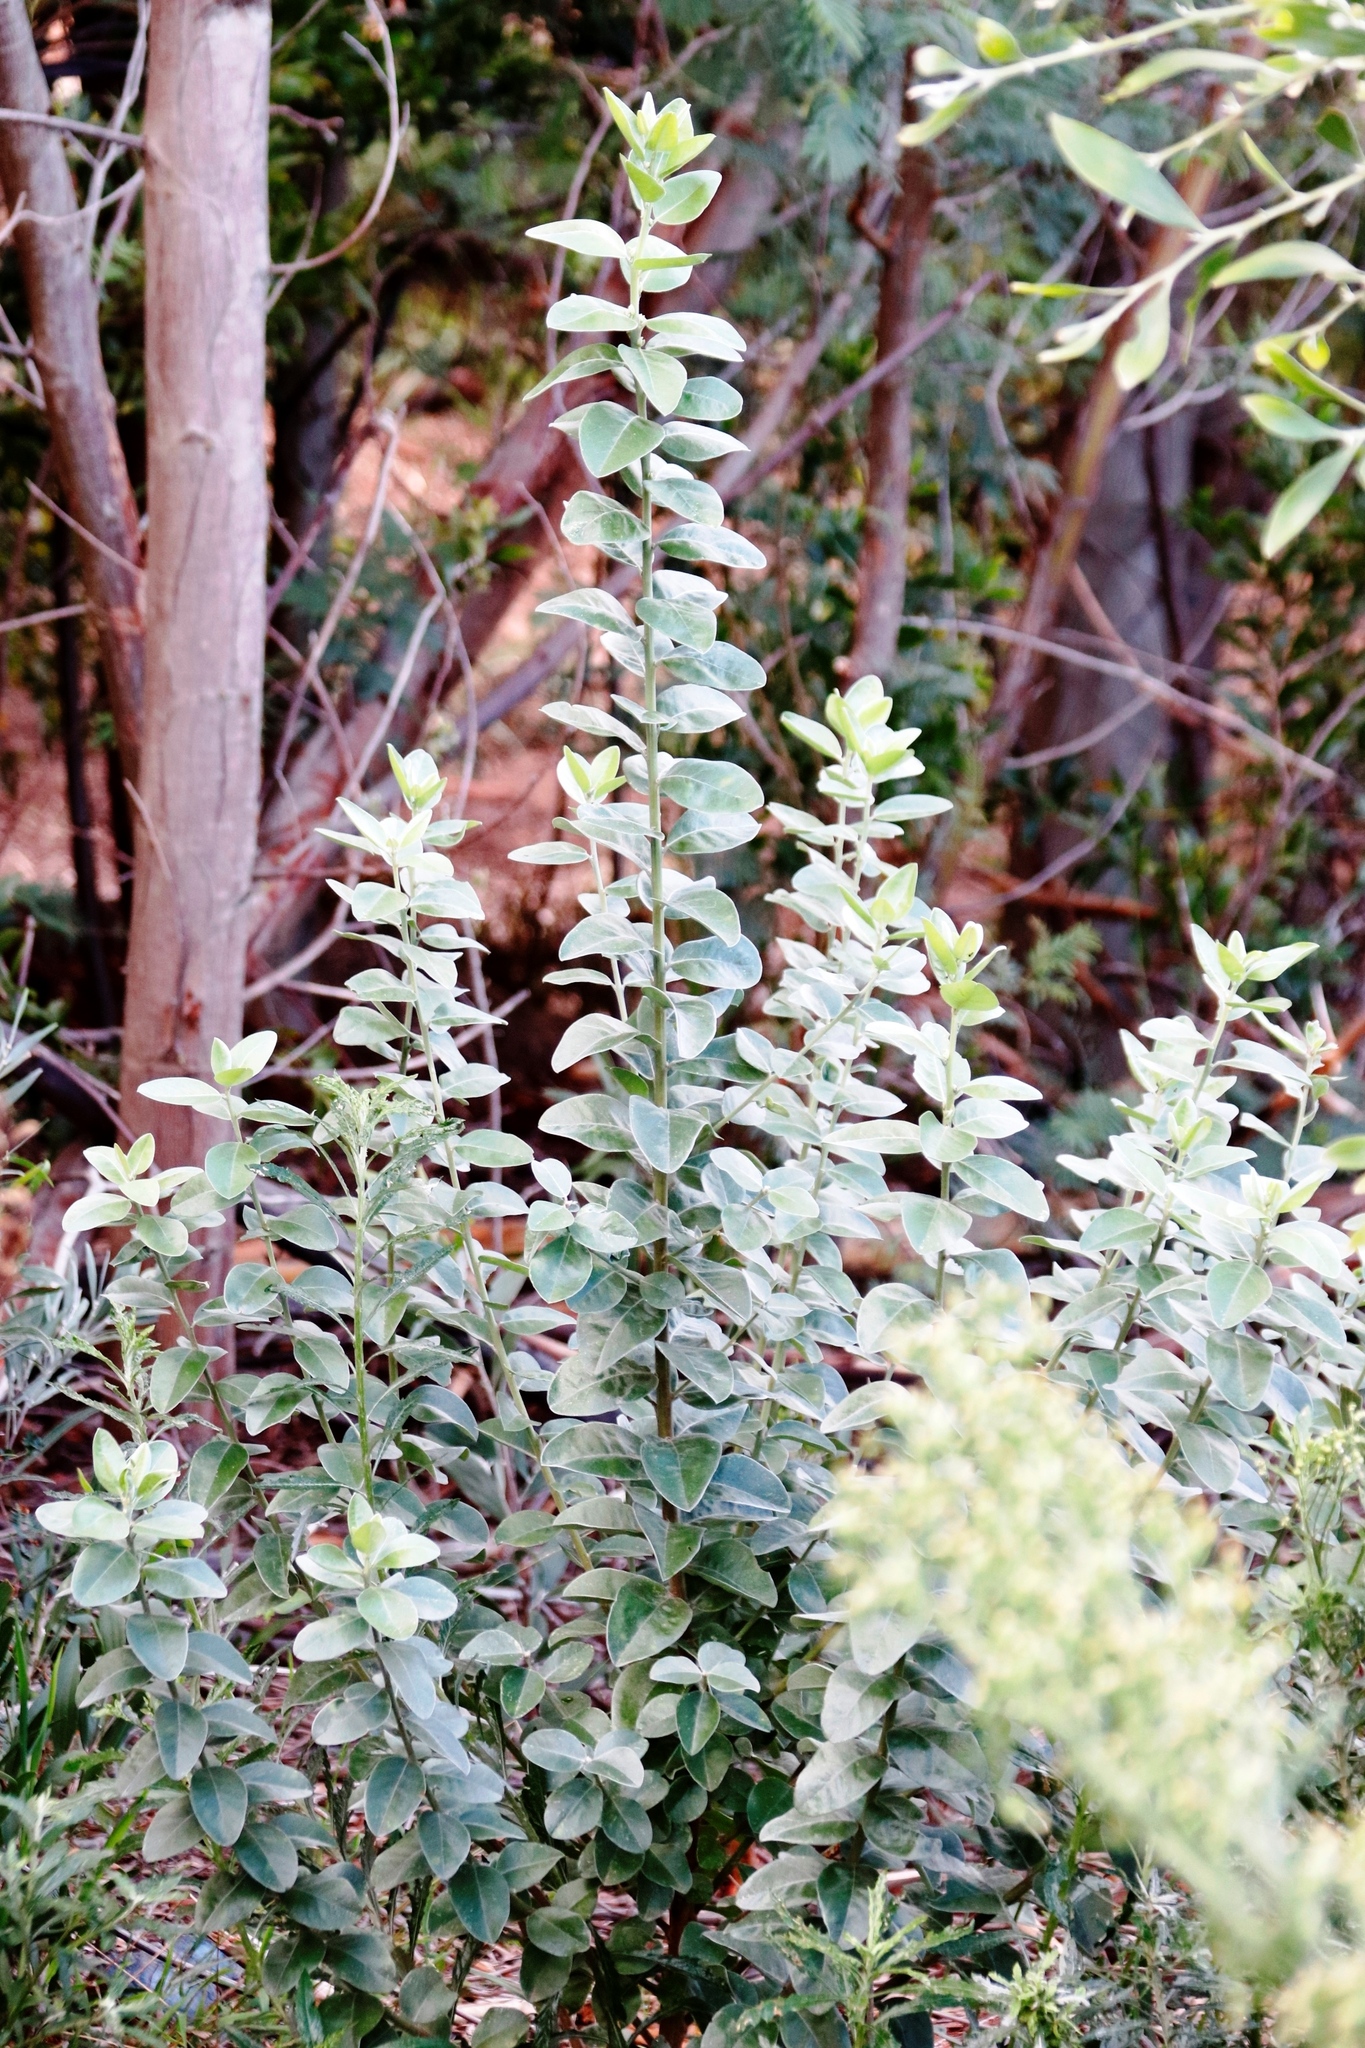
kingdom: Plantae
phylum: Tracheophyta
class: Magnoliopsida
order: Fabales
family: Fabaceae
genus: Podalyria
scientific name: Podalyria calyptrata
